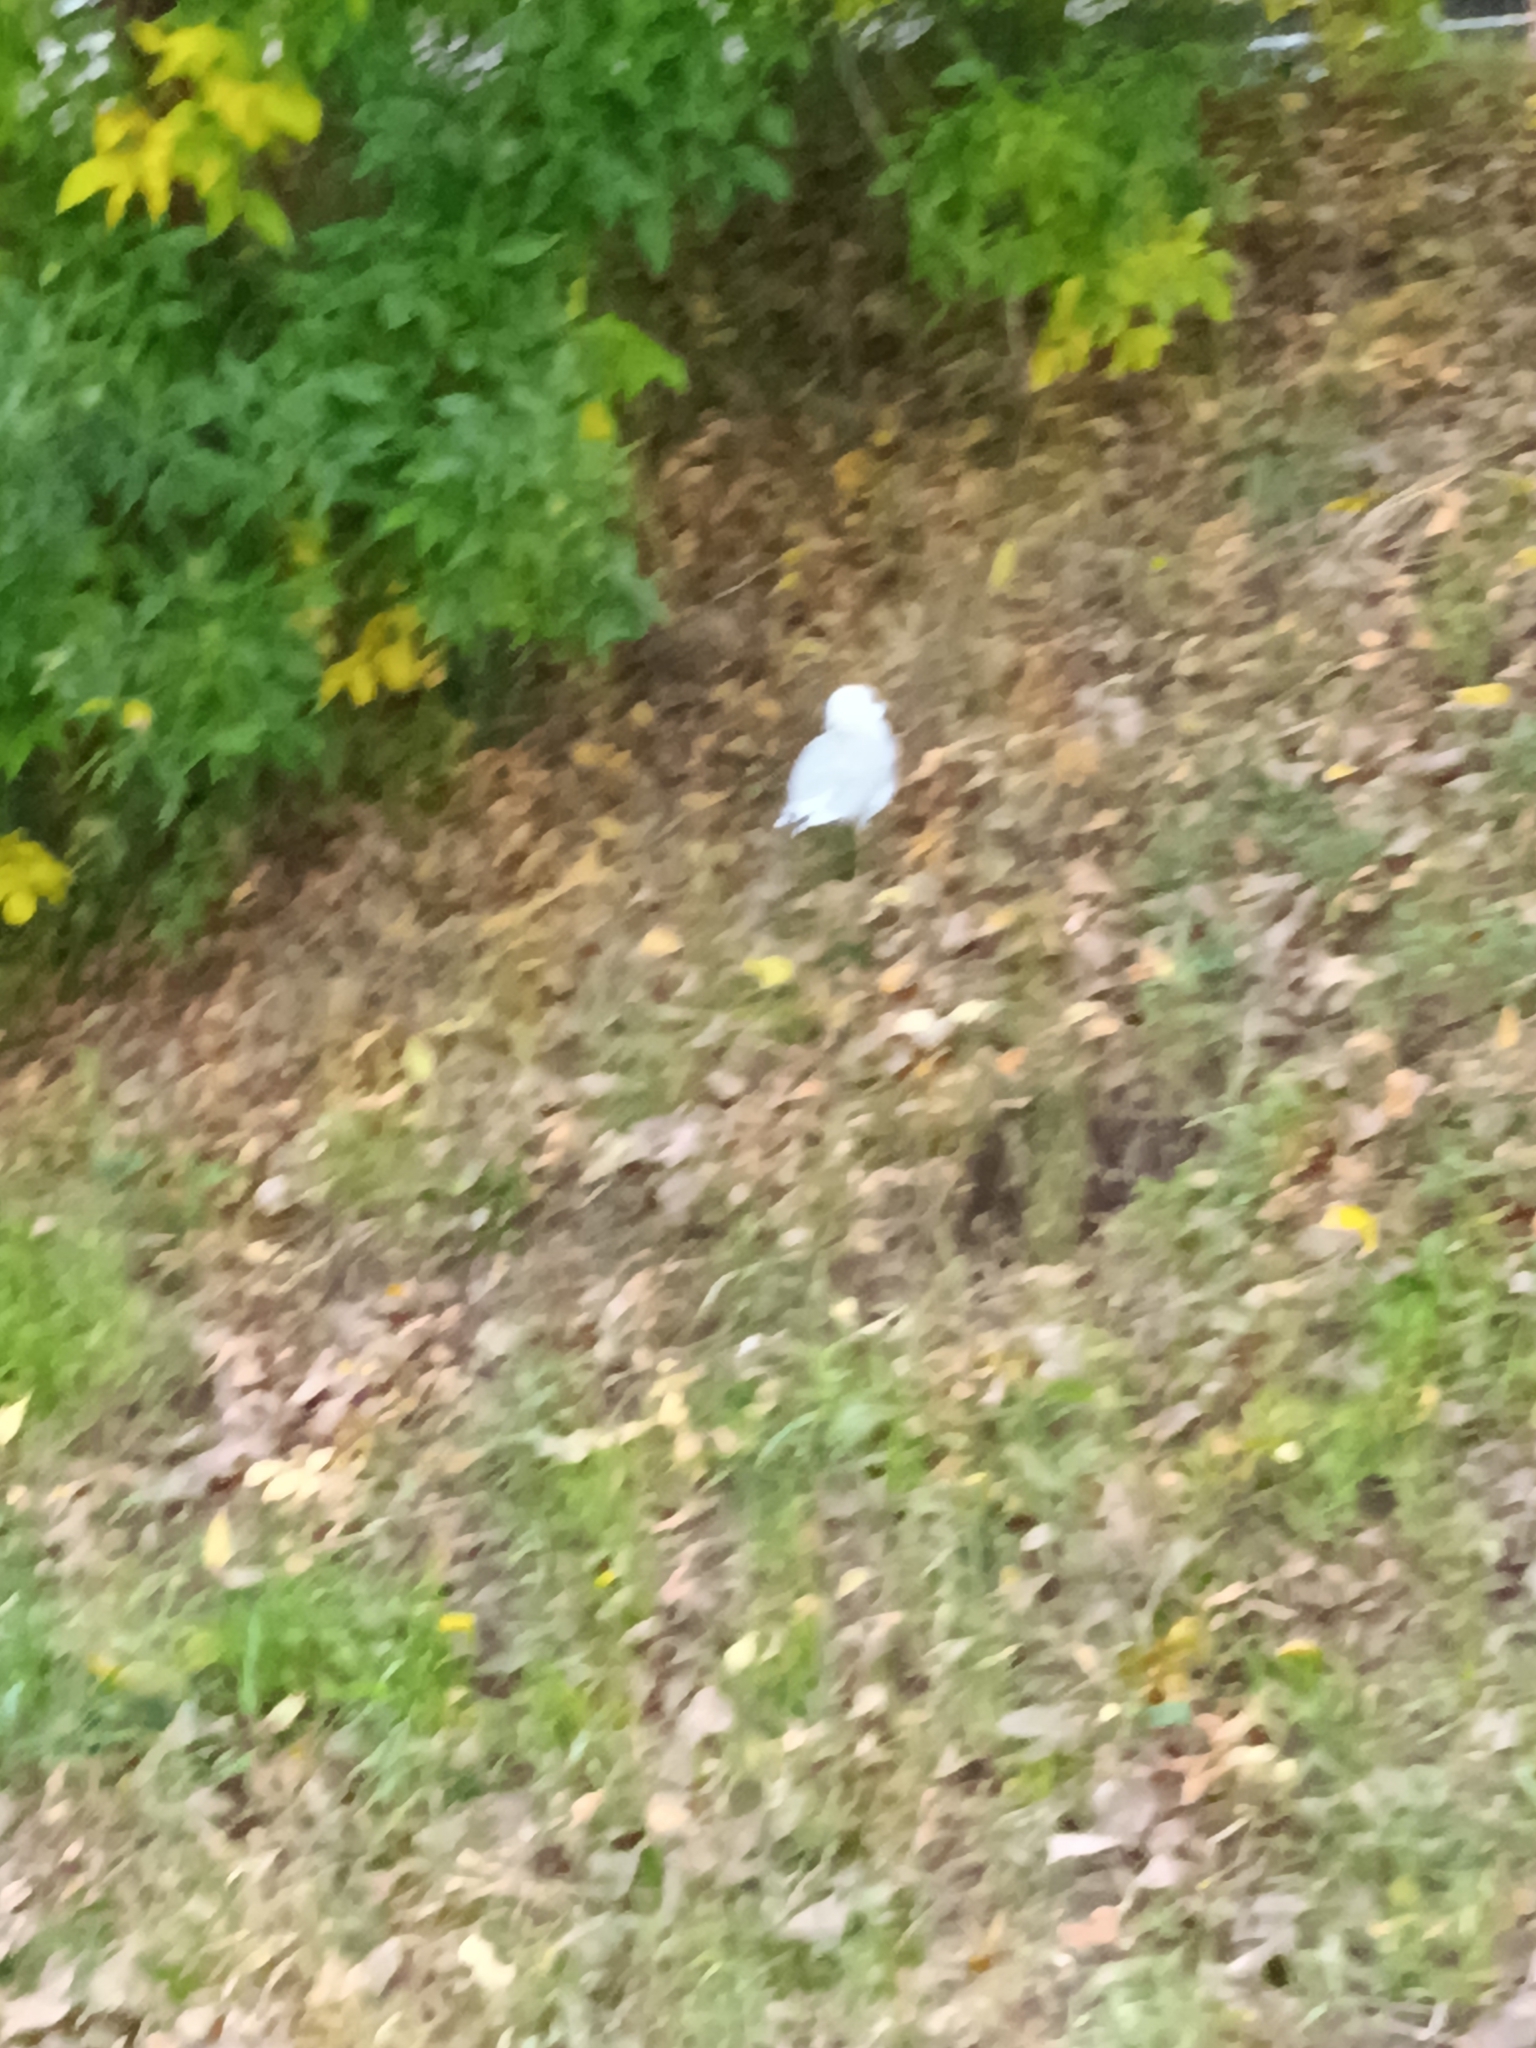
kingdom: Animalia
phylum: Chordata
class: Aves
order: Charadriiformes
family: Laridae
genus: Larus
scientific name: Larus delawarensis
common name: Ring-billed gull
